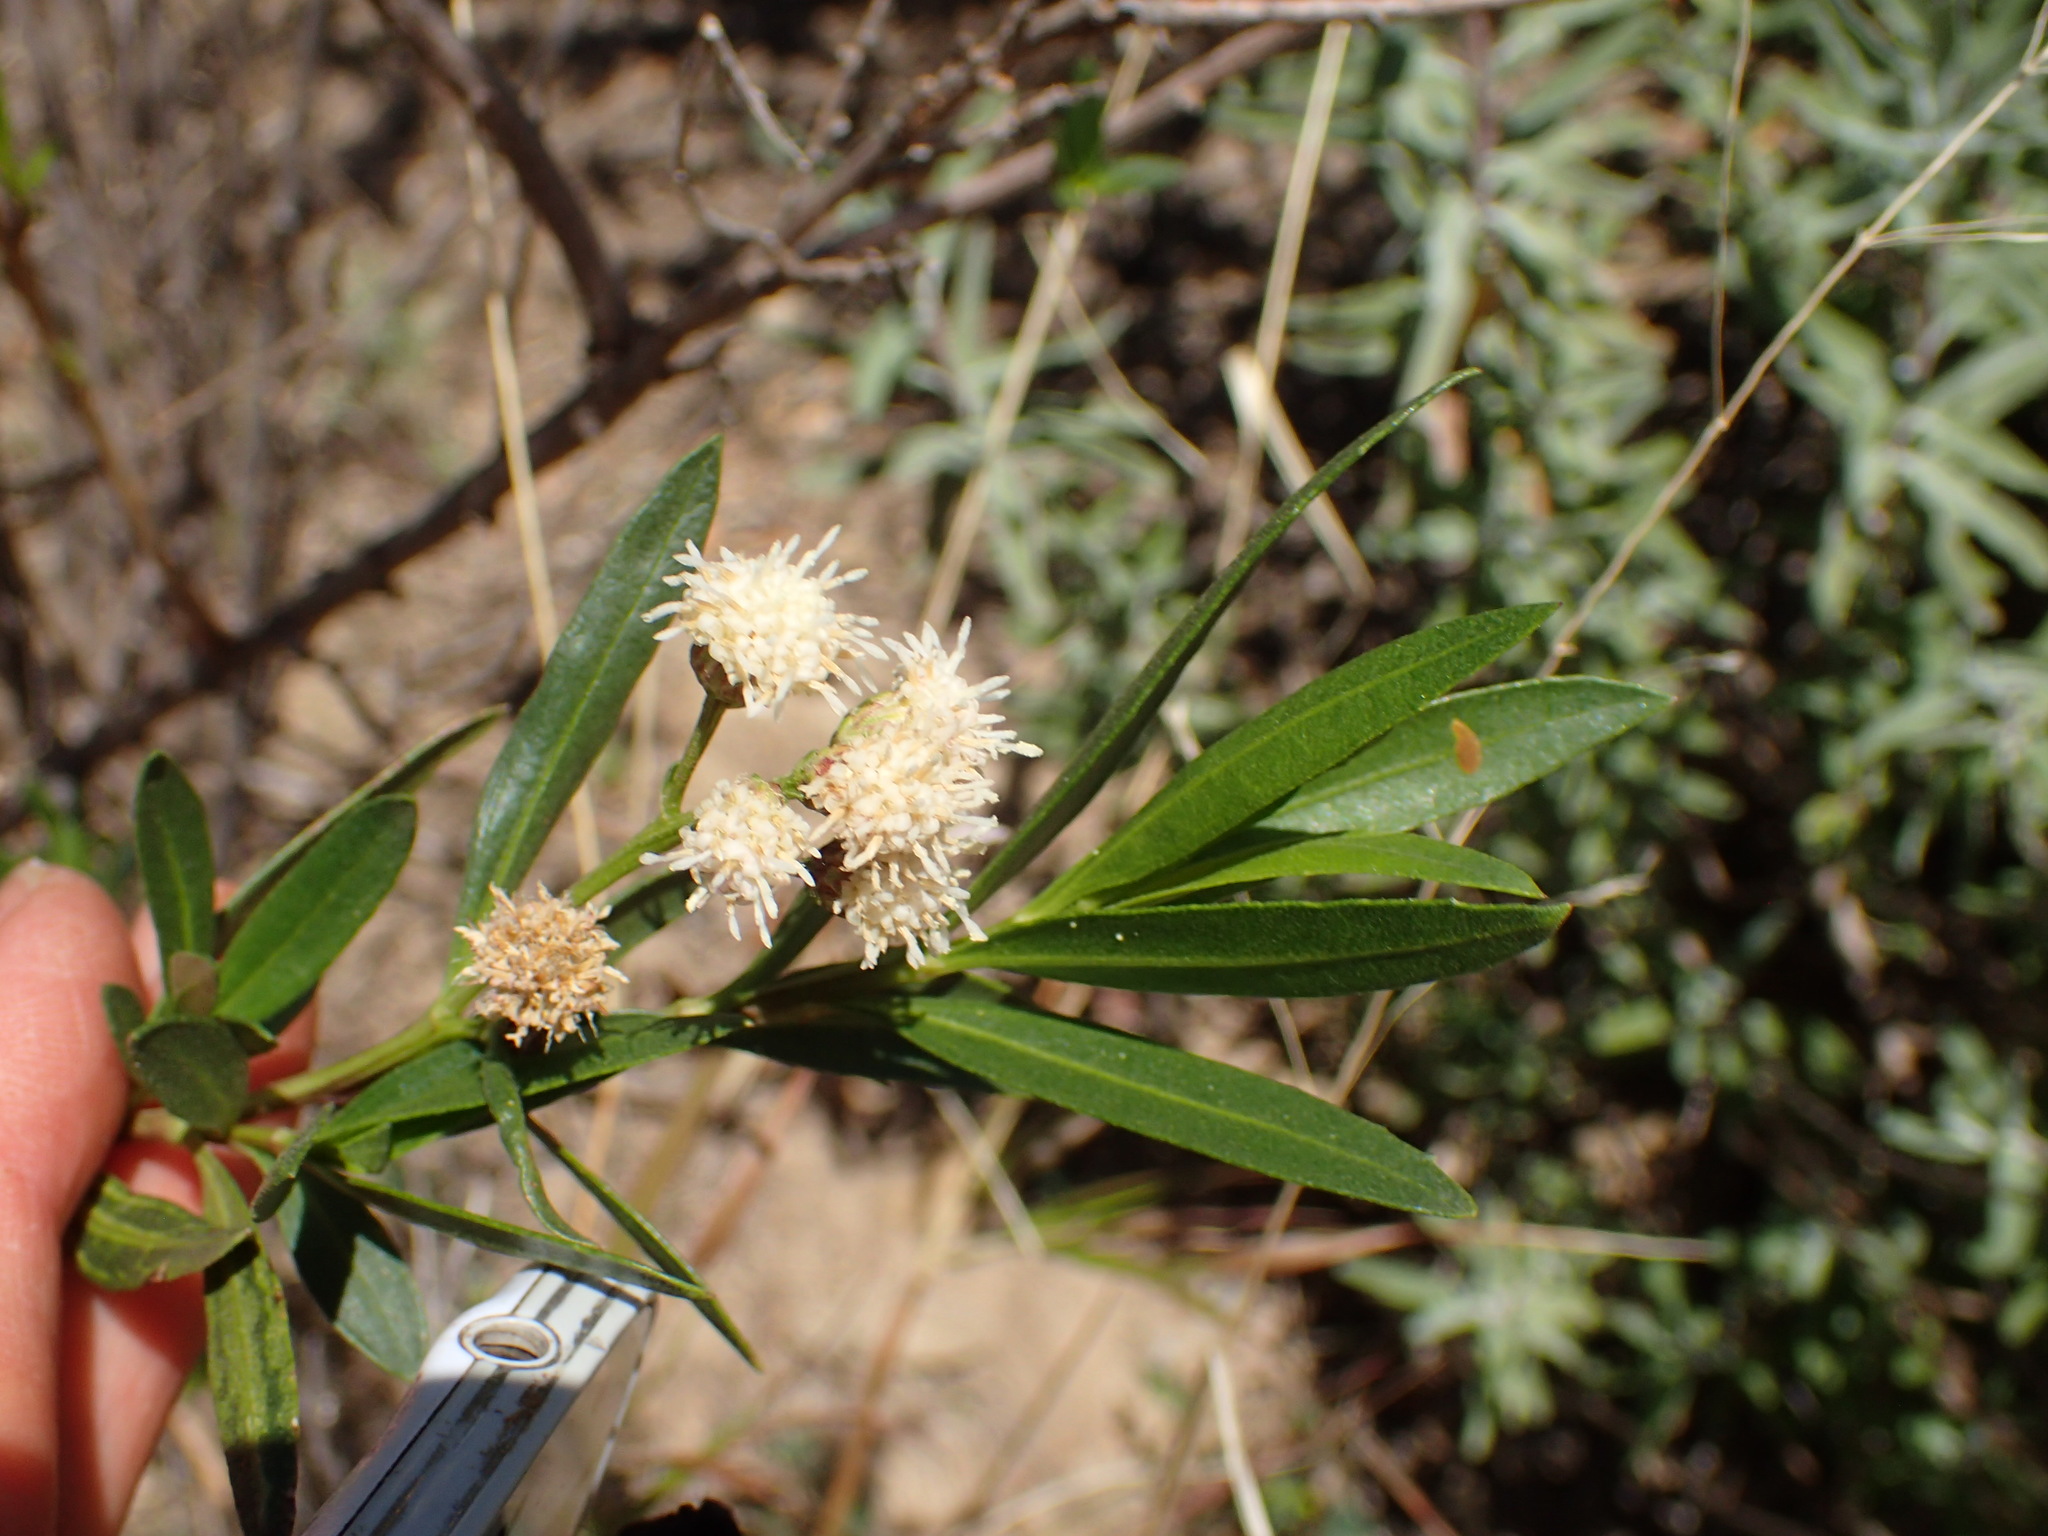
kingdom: Plantae
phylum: Tracheophyta
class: Magnoliopsida
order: Asterales
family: Asteraceae
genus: Baccharis
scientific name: Baccharis salicifolia
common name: Sticky baccharis
